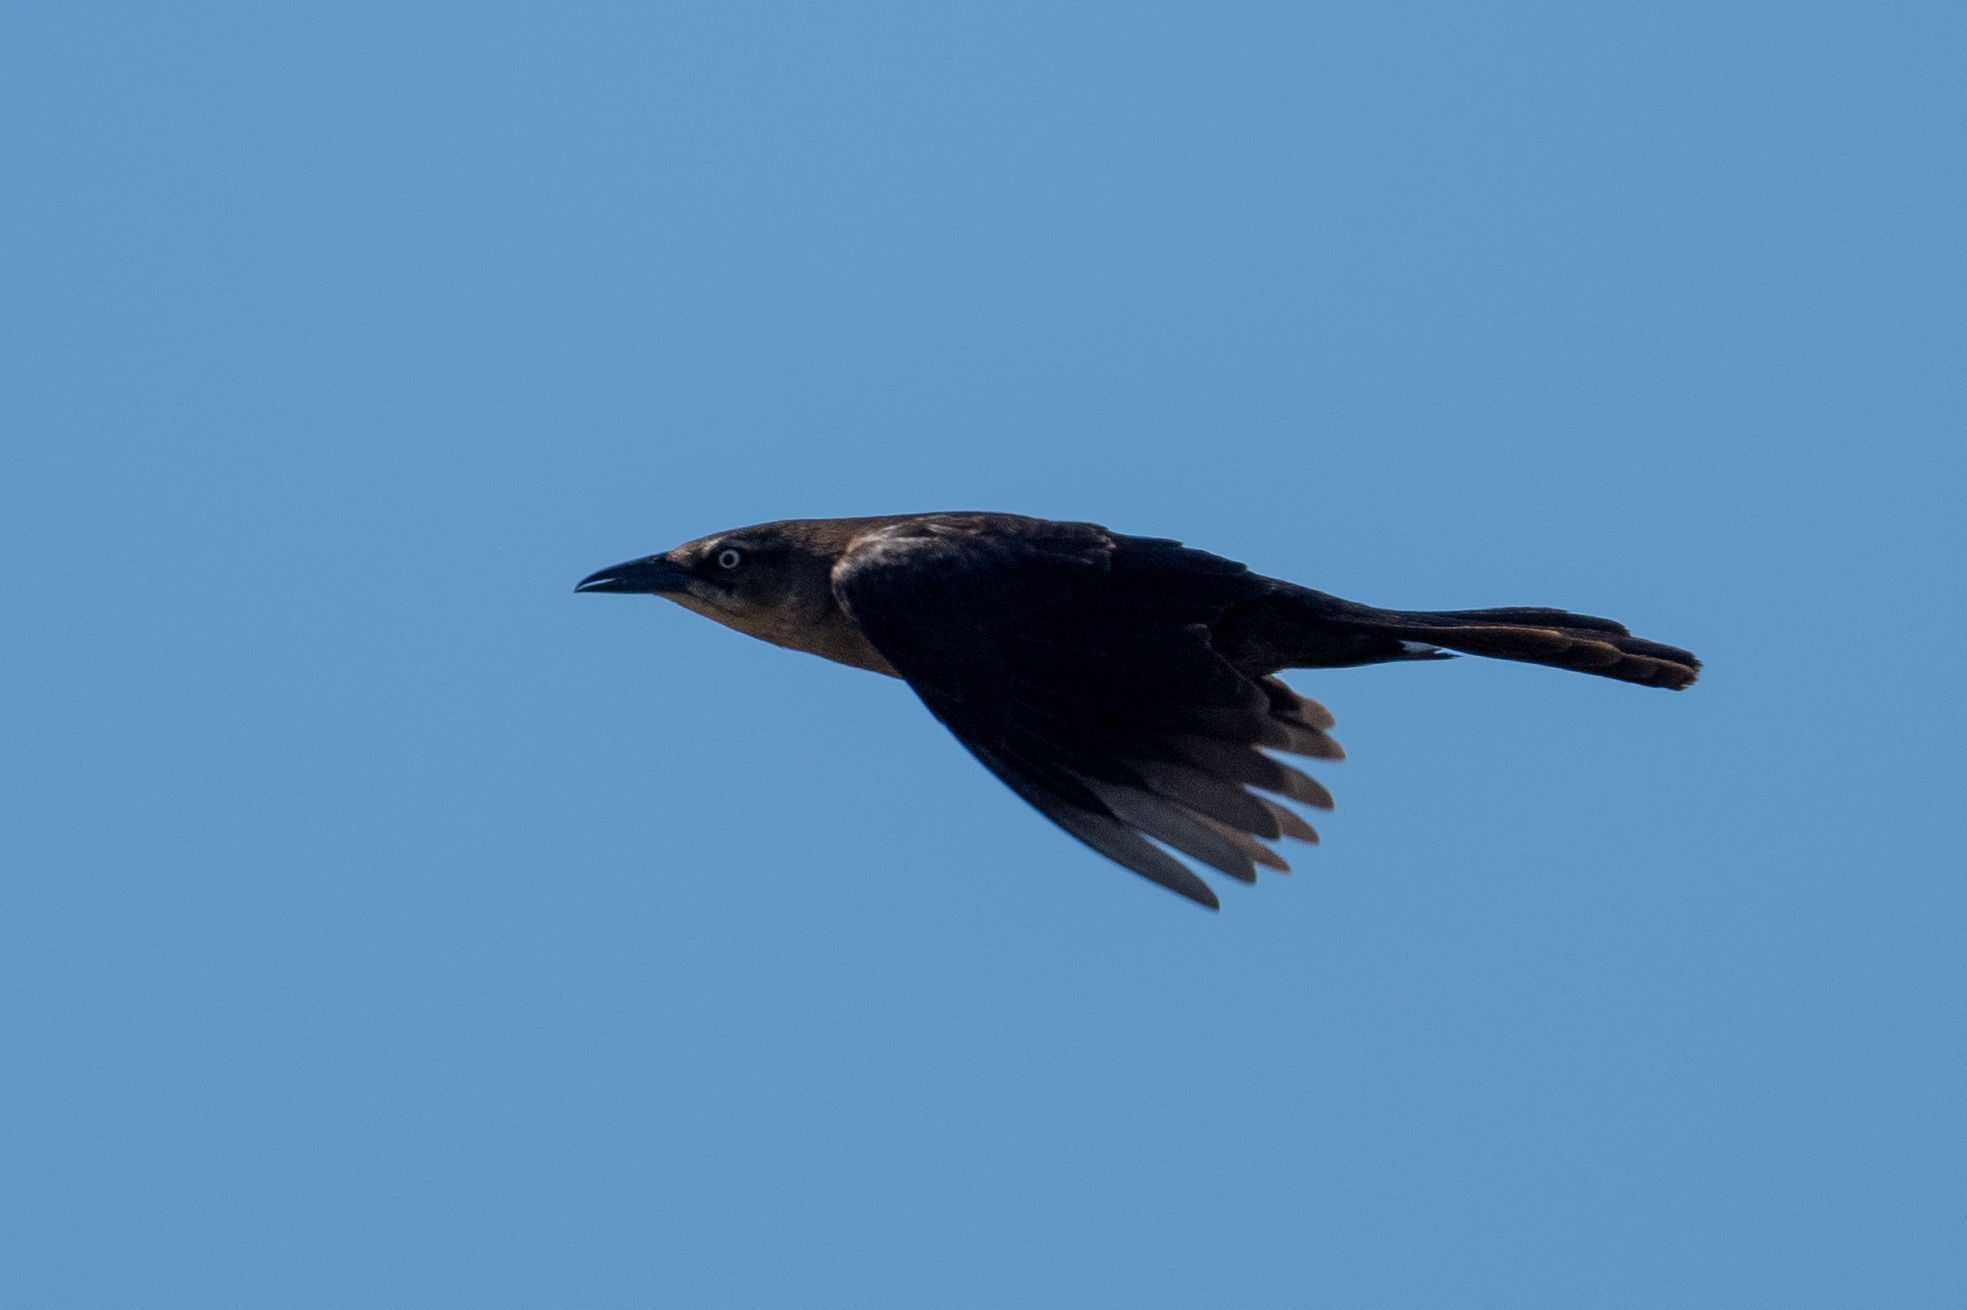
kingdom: Animalia
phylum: Chordata
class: Aves
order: Passeriformes
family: Icteridae
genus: Quiscalus
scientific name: Quiscalus mexicanus
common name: Great-tailed grackle
